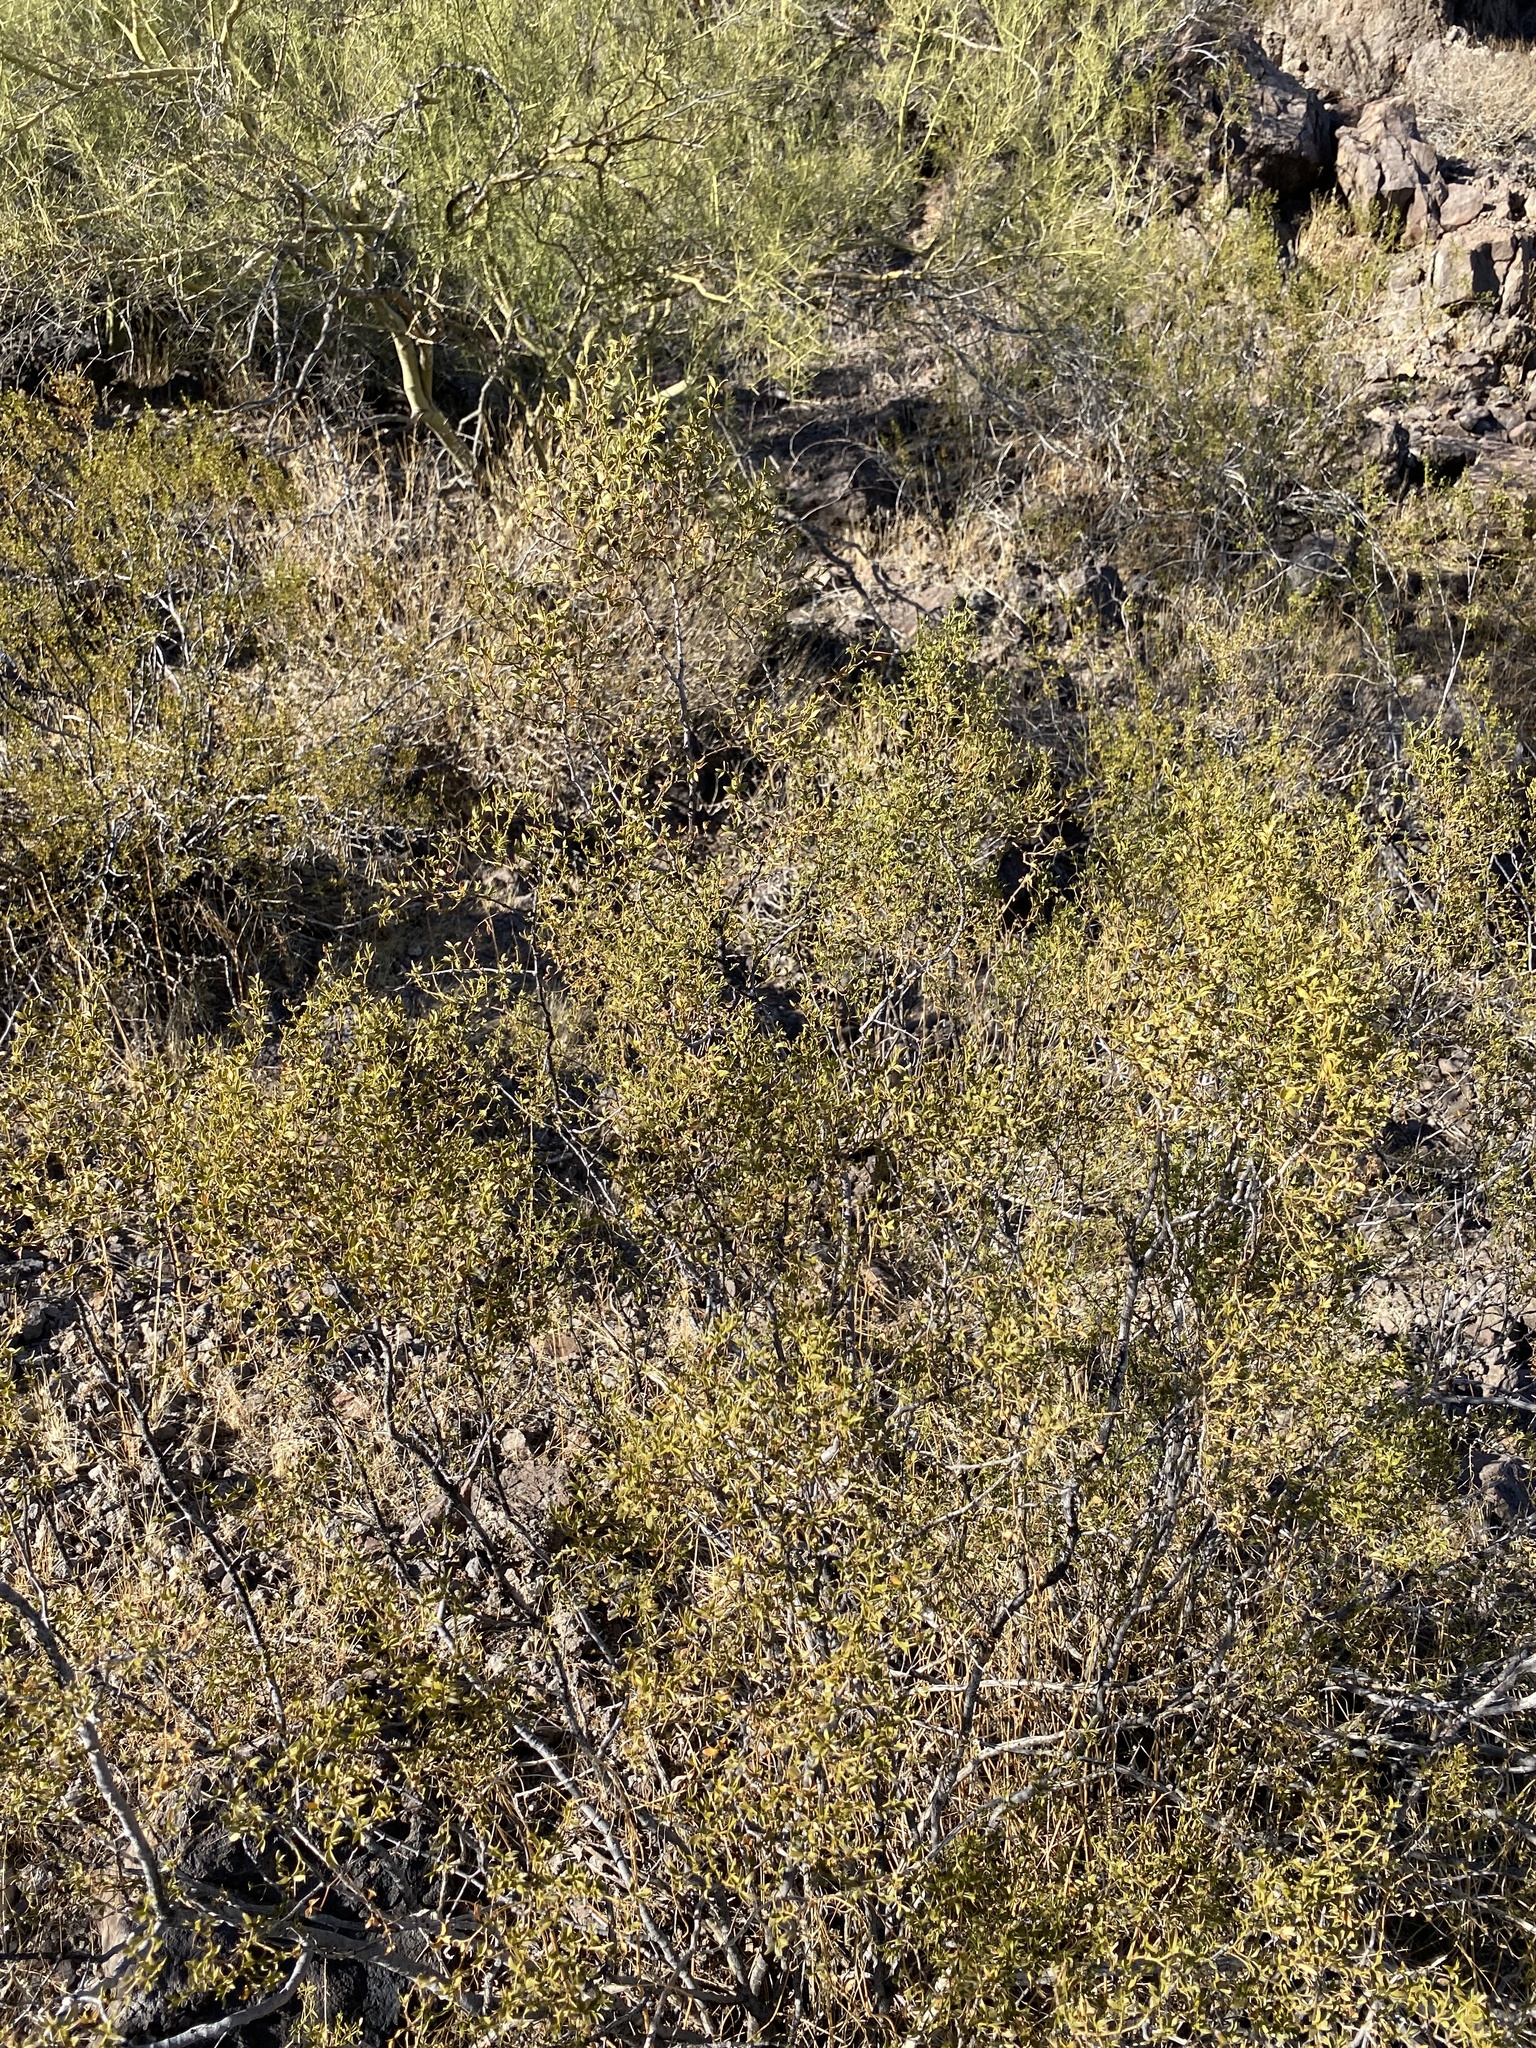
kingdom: Plantae
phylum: Tracheophyta
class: Magnoliopsida
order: Zygophyllales
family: Zygophyllaceae
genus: Larrea
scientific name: Larrea tridentata
